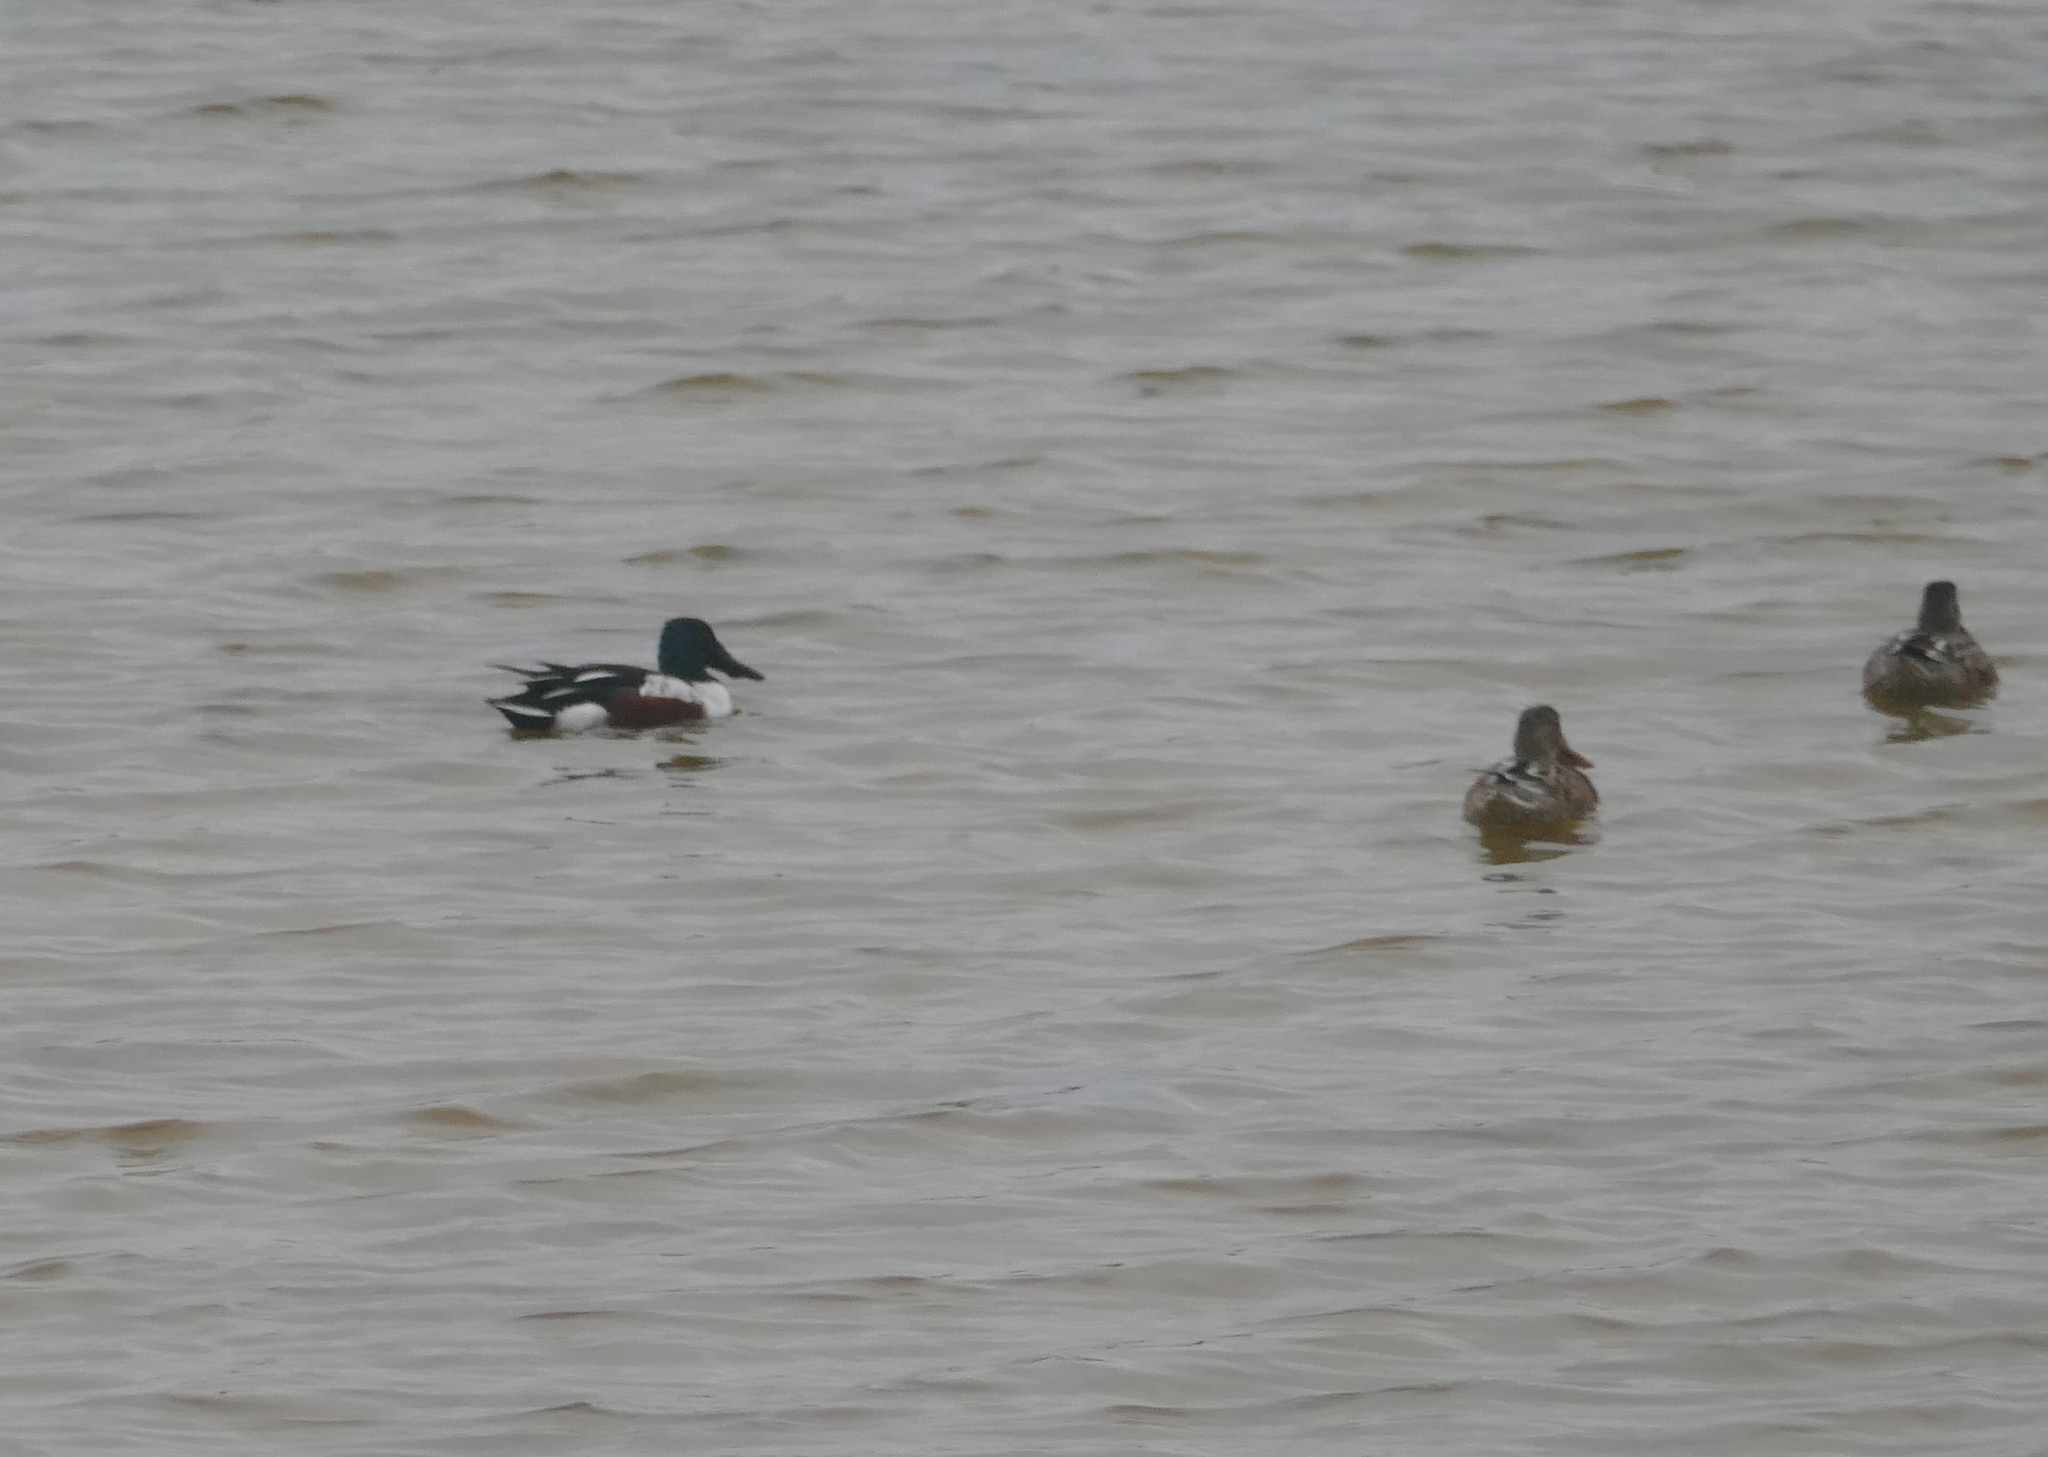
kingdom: Animalia
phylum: Chordata
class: Aves
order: Anseriformes
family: Anatidae
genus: Spatula
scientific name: Spatula clypeata
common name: Northern shoveler
